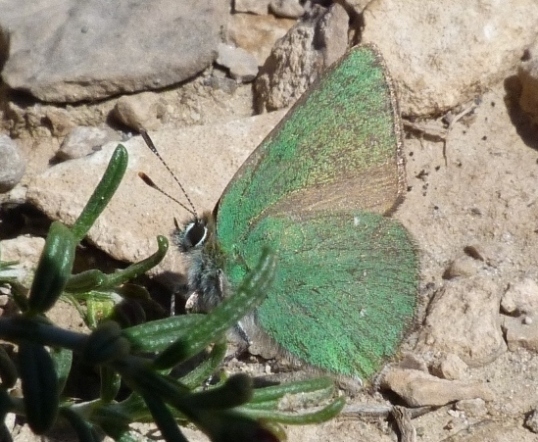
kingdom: Animalia
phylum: Arthropoda
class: Insecta
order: Lepidoptera
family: Lycaenidae
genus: Callophrys
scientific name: Callophrys rubi
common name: Green hairstreak
